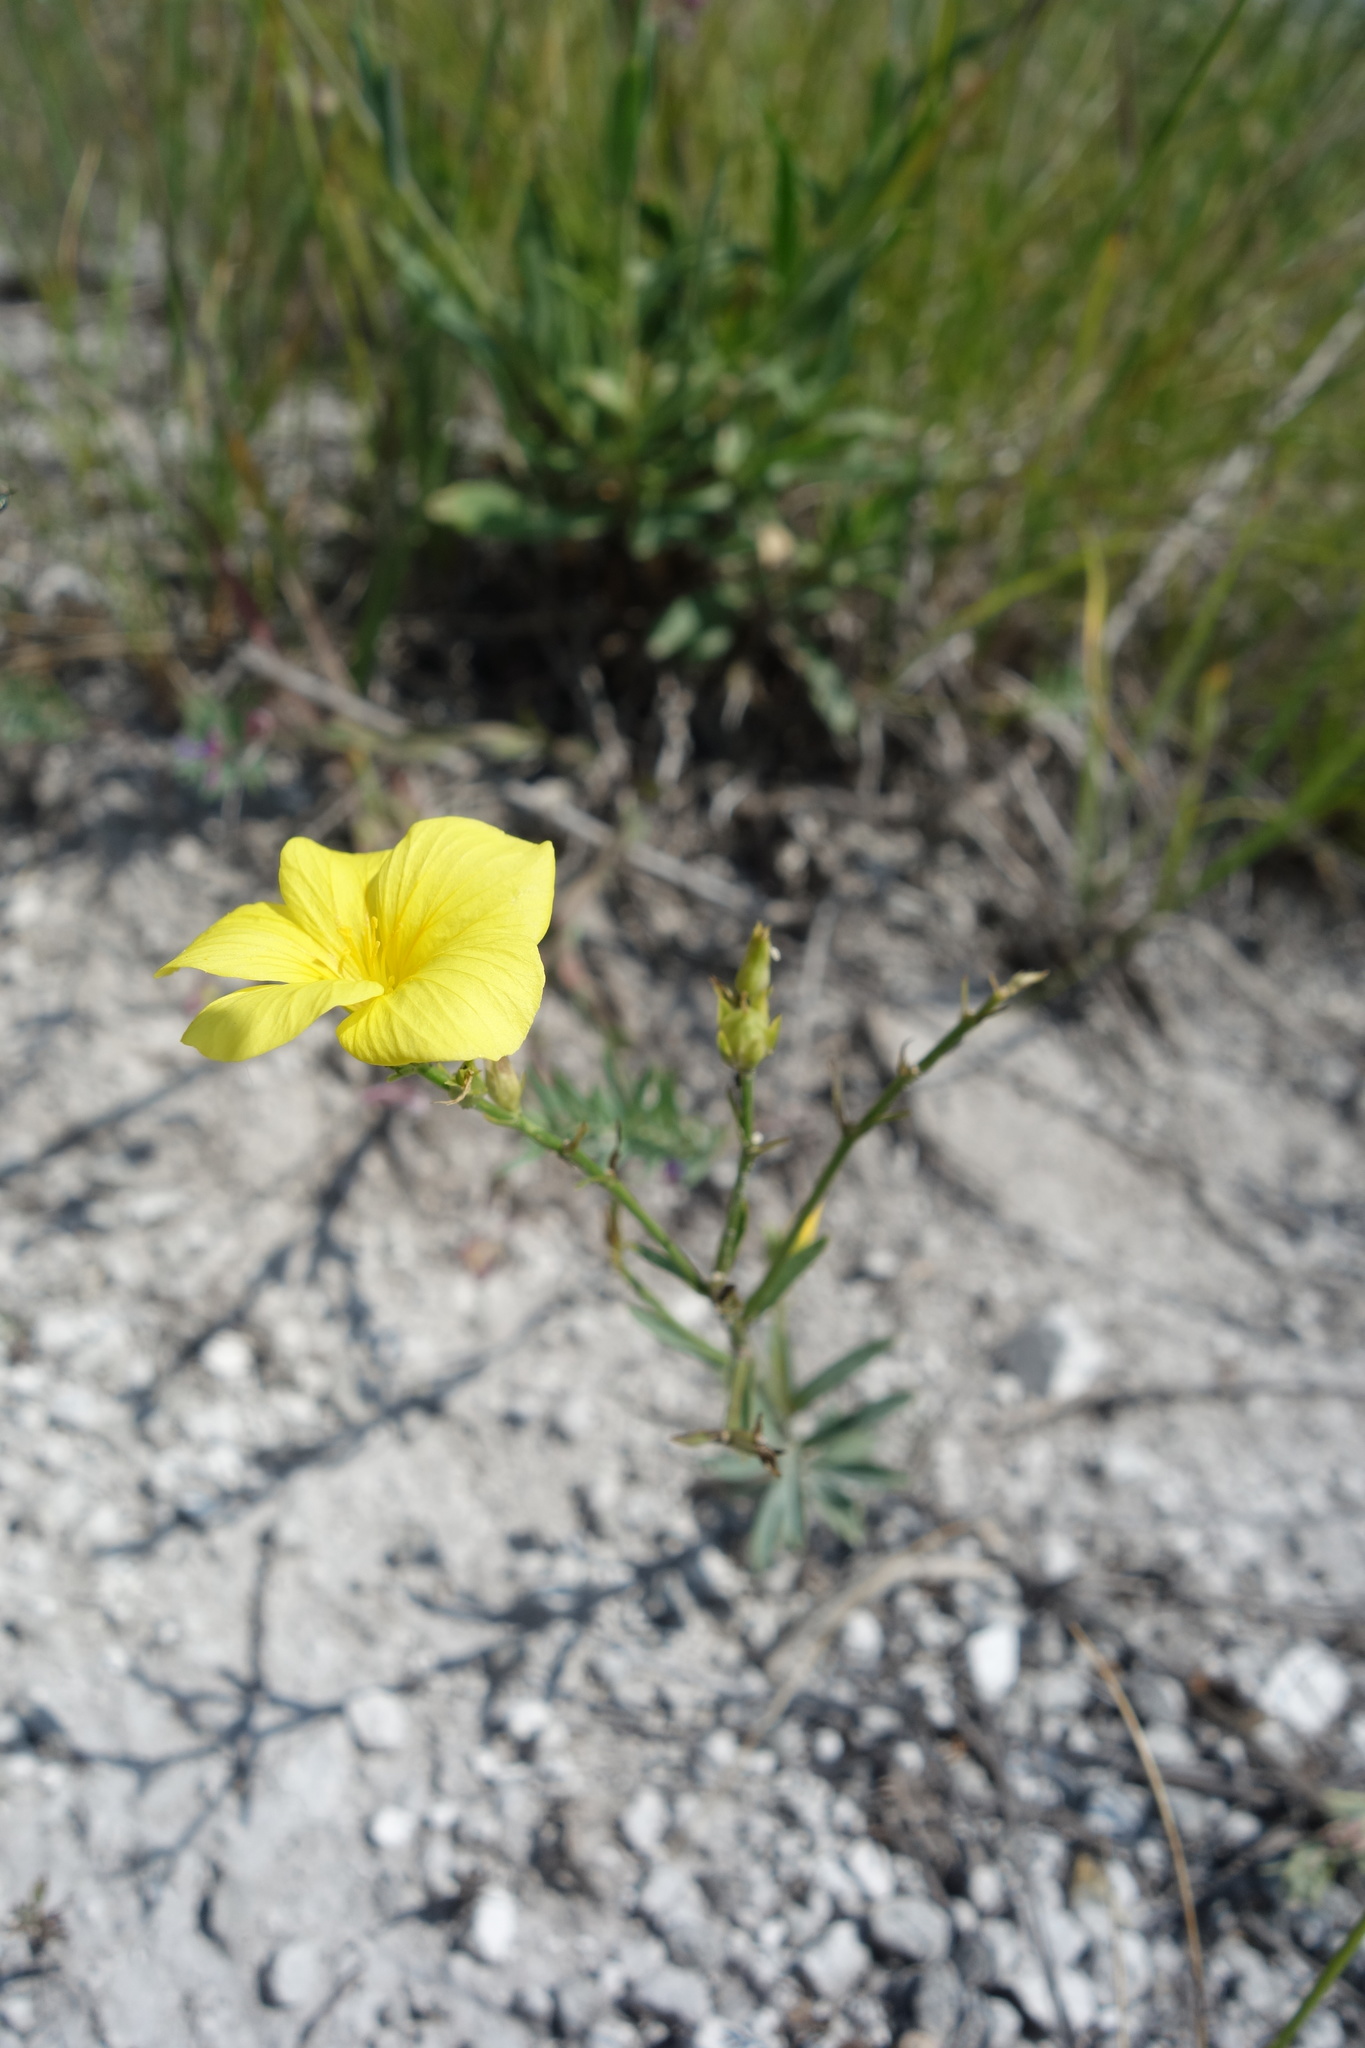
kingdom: Plantae
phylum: Tracheophyta
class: Magnoliopsida
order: Malpighiales
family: Linaceae
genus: Linum
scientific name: Linum ucranicum
